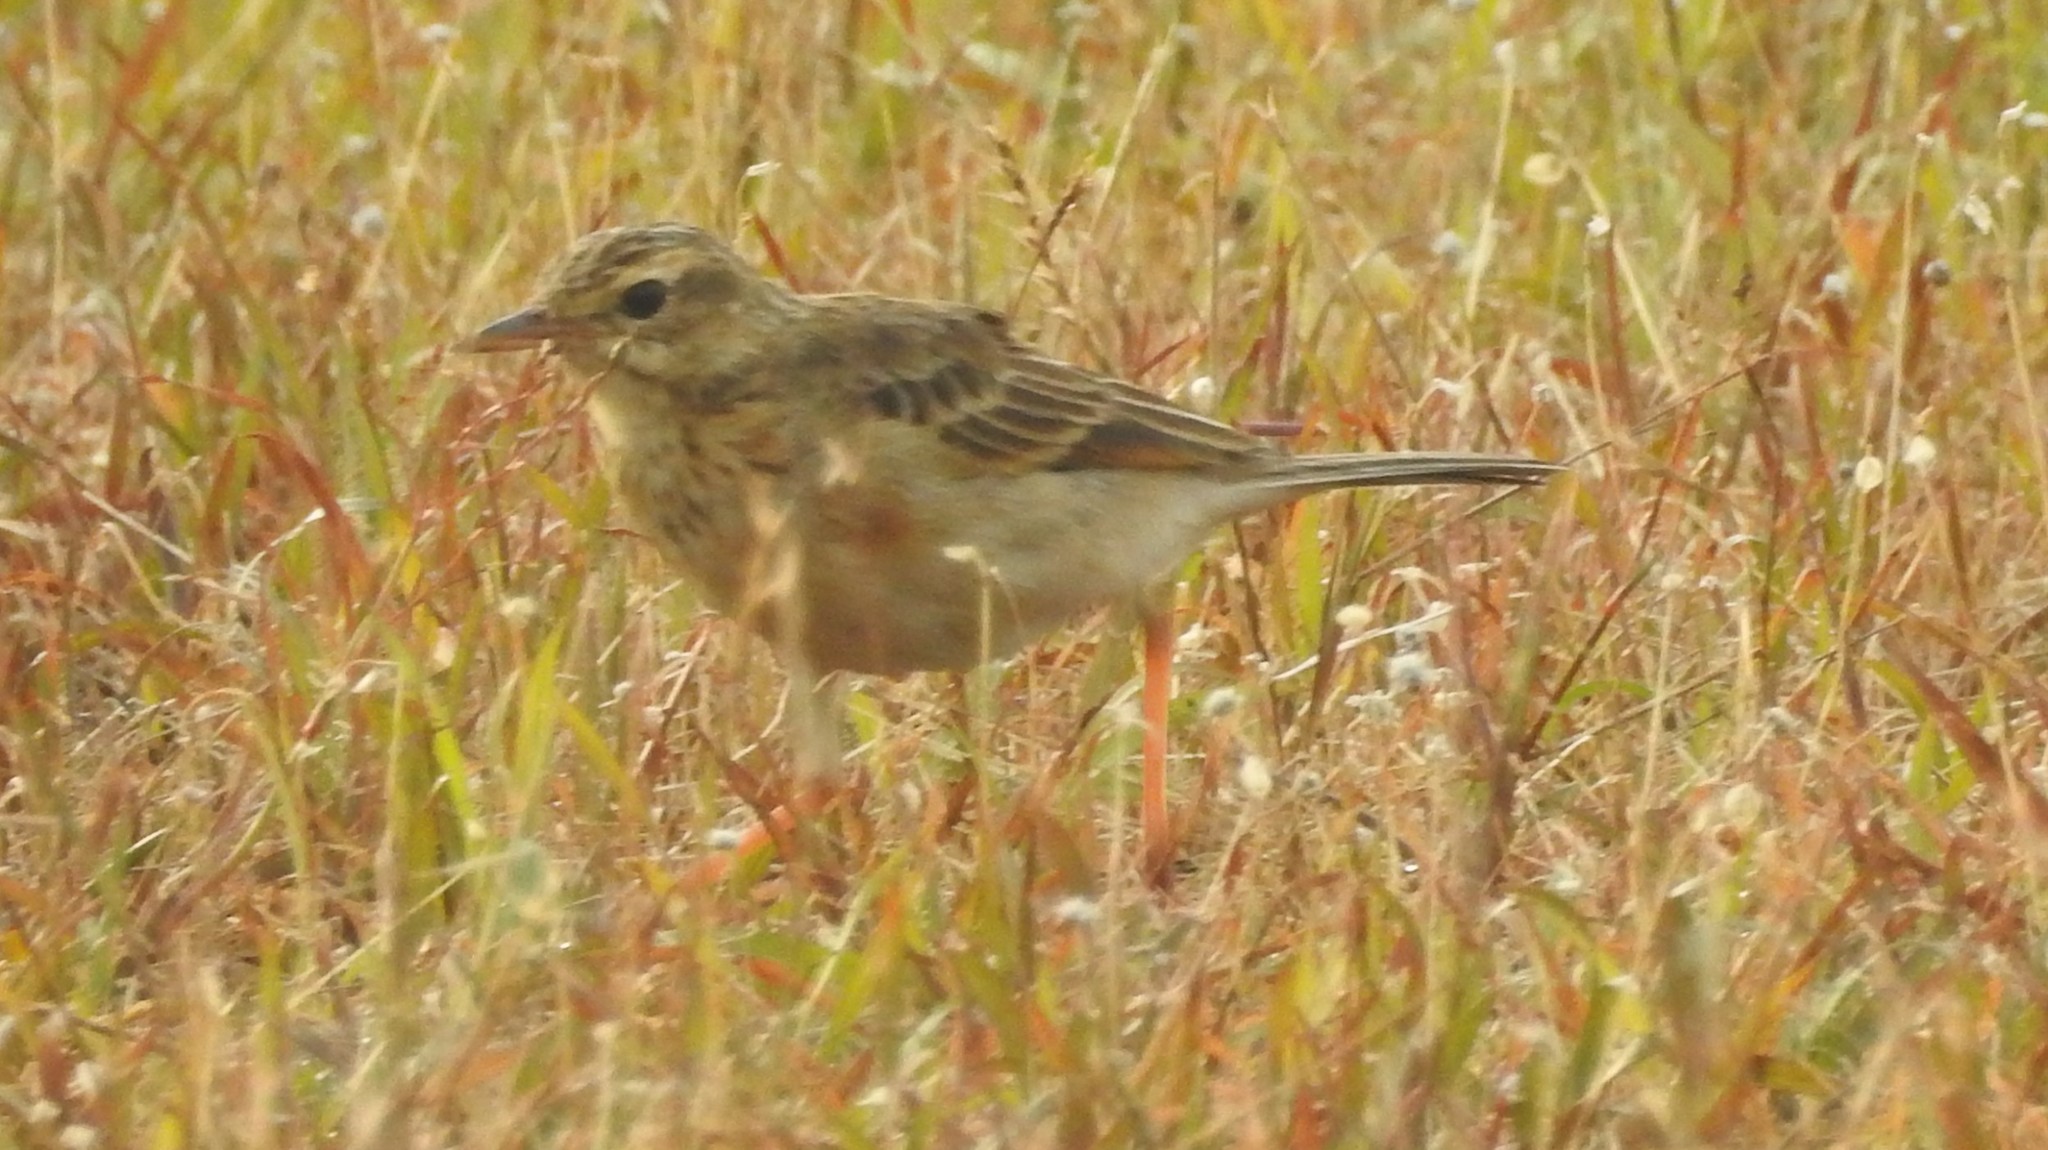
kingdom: Animalia
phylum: Chordata
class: Aves
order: Passeriformes
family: Motacillidae
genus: Anthus
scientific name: Anthus rufulus
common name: Paddyfield pipit
